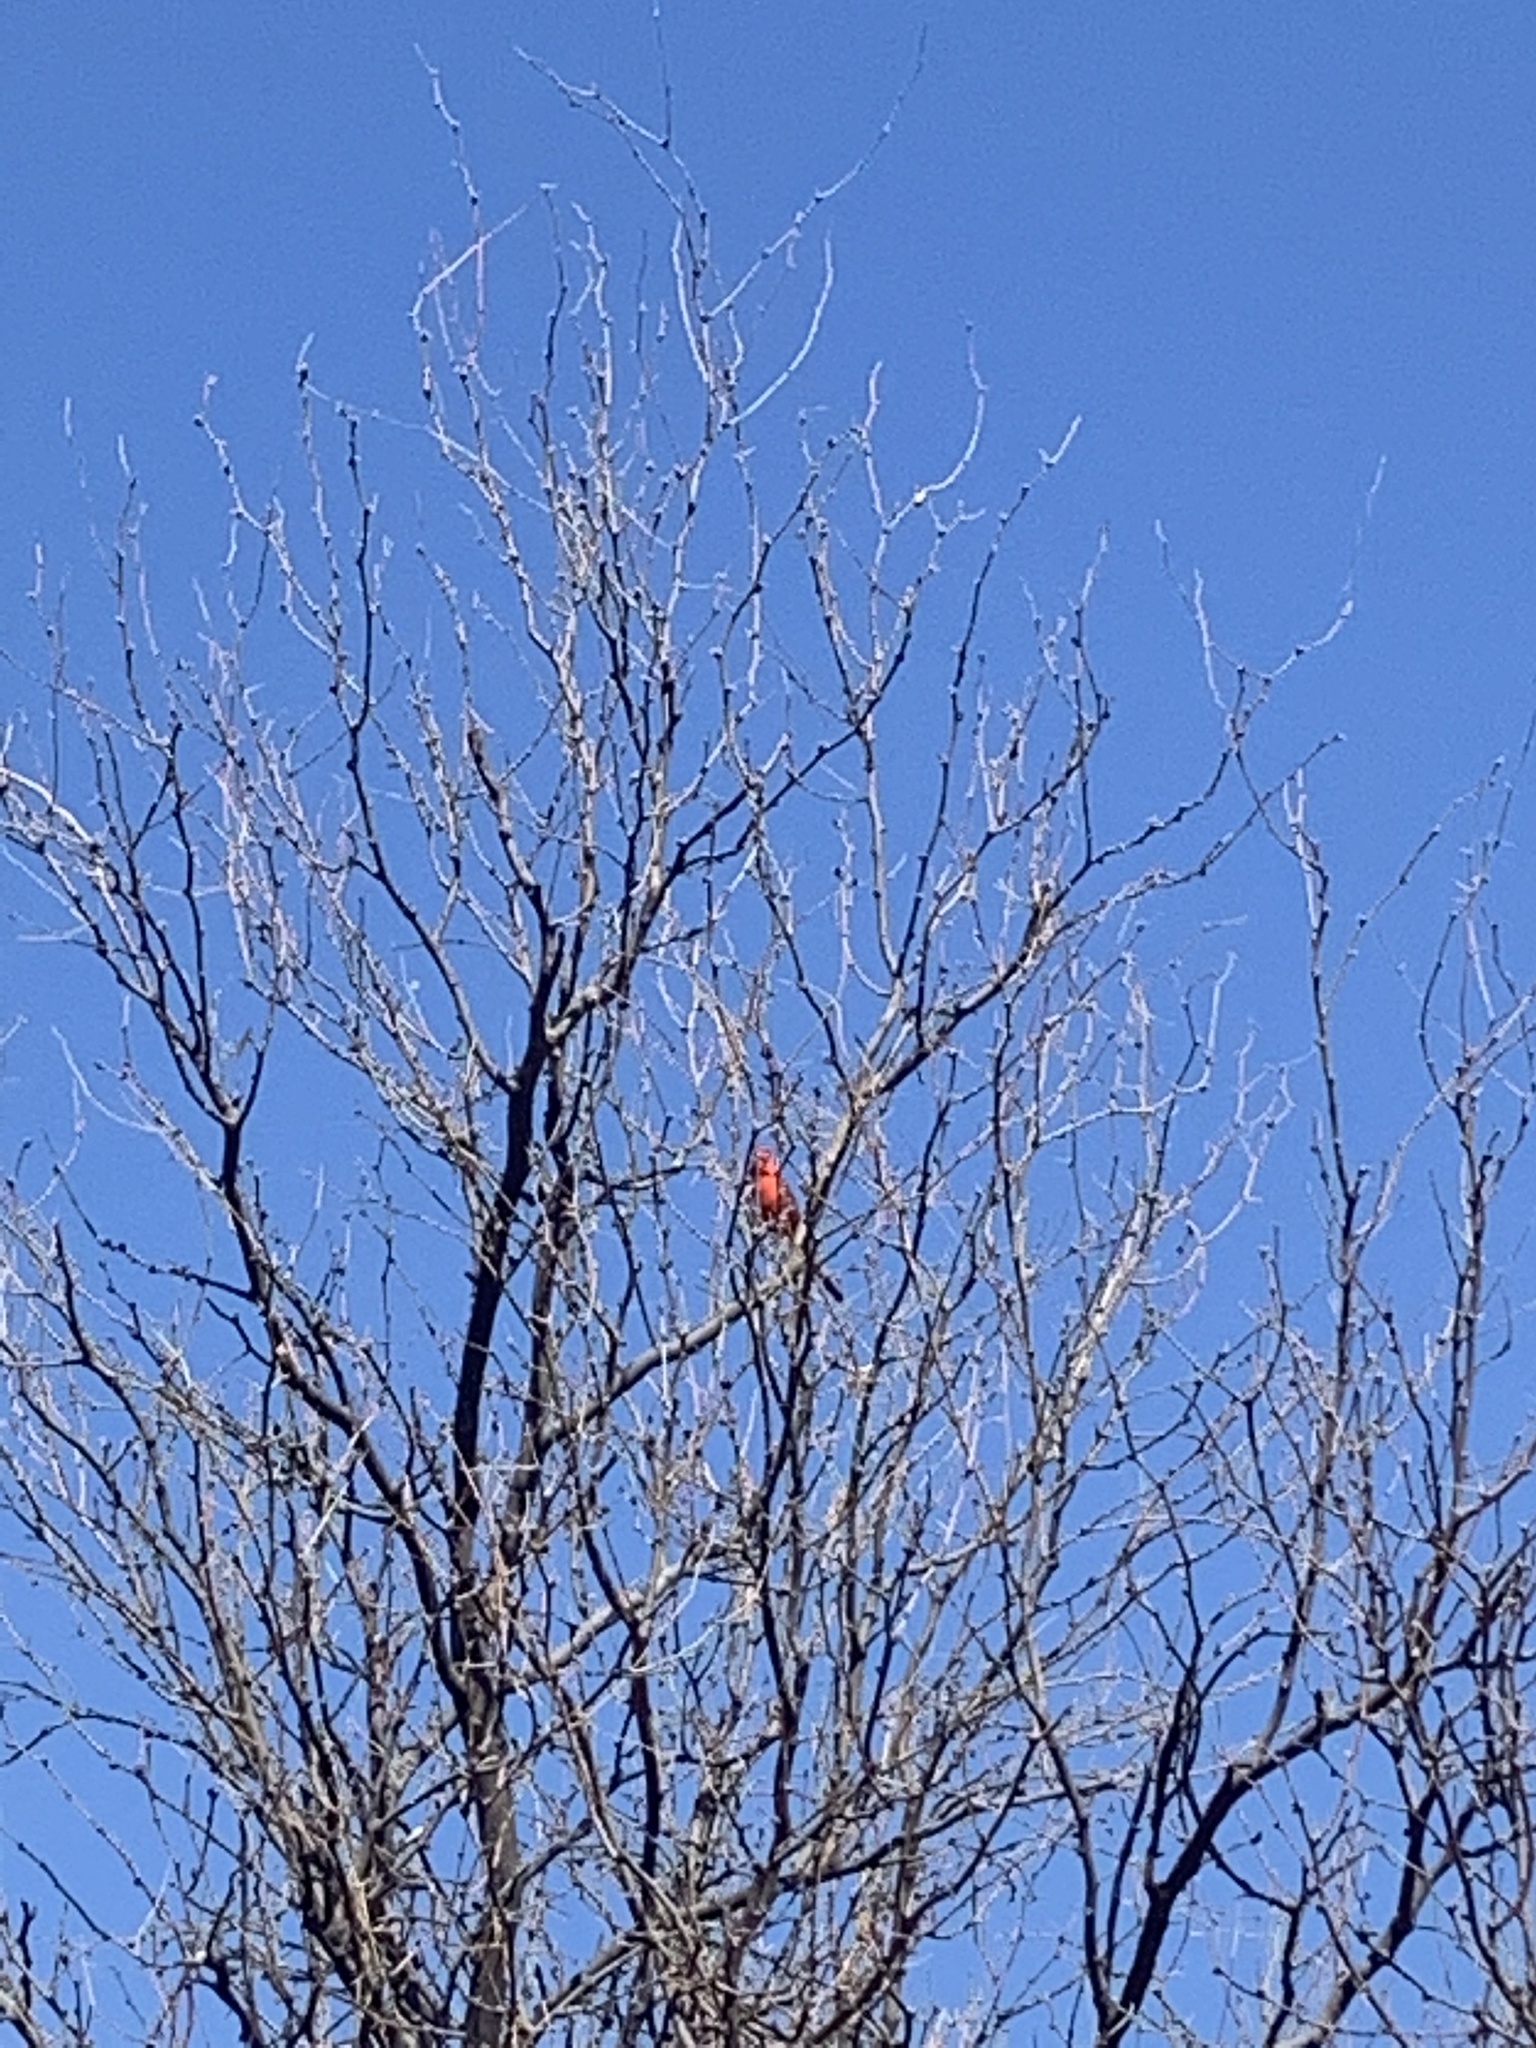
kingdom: Animalia
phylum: Chordata
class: Aves
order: Passeriformes
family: Cardinalidae
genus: Cardinalis
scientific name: Cardinalis cardinalis
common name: Northern cardinal
